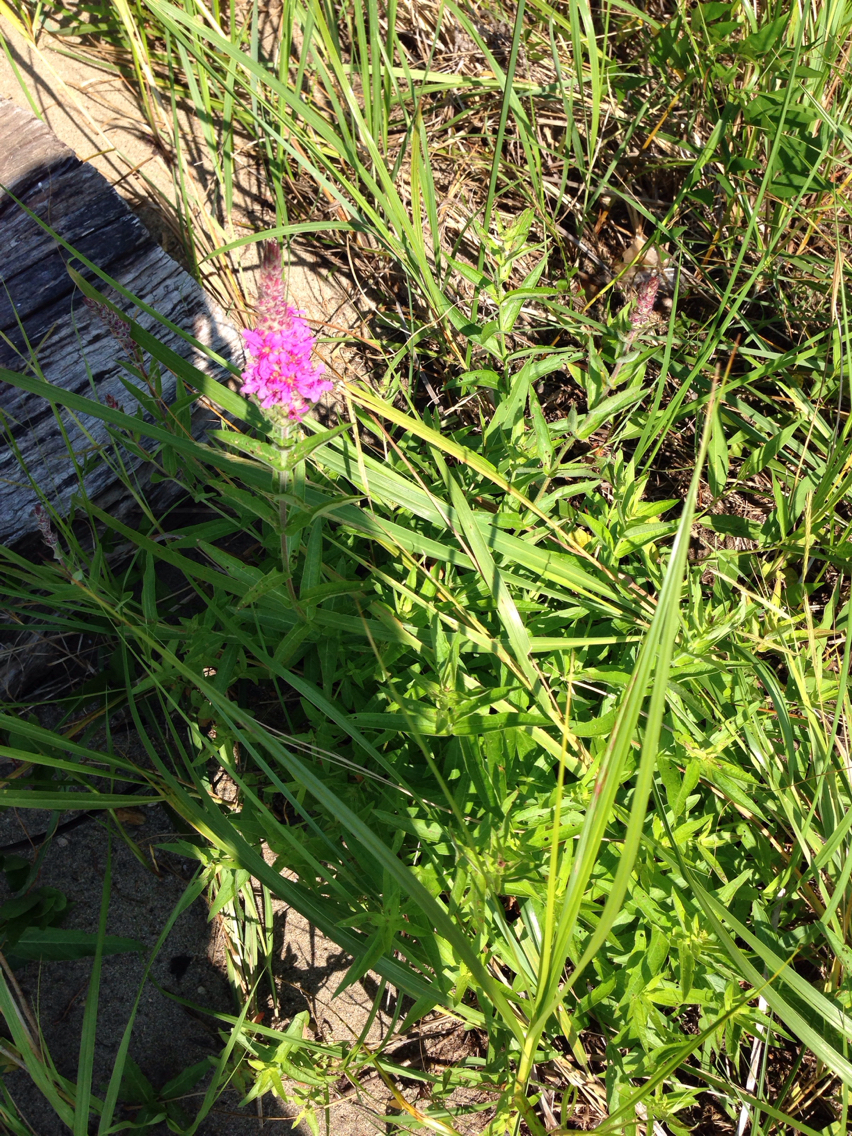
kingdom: Plantae
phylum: Tracheophyta
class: Magnoliopsida
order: Myrtales
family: Lythraceae
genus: Lythrum
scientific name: Lythrum salicaria
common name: Purple loosestrife
